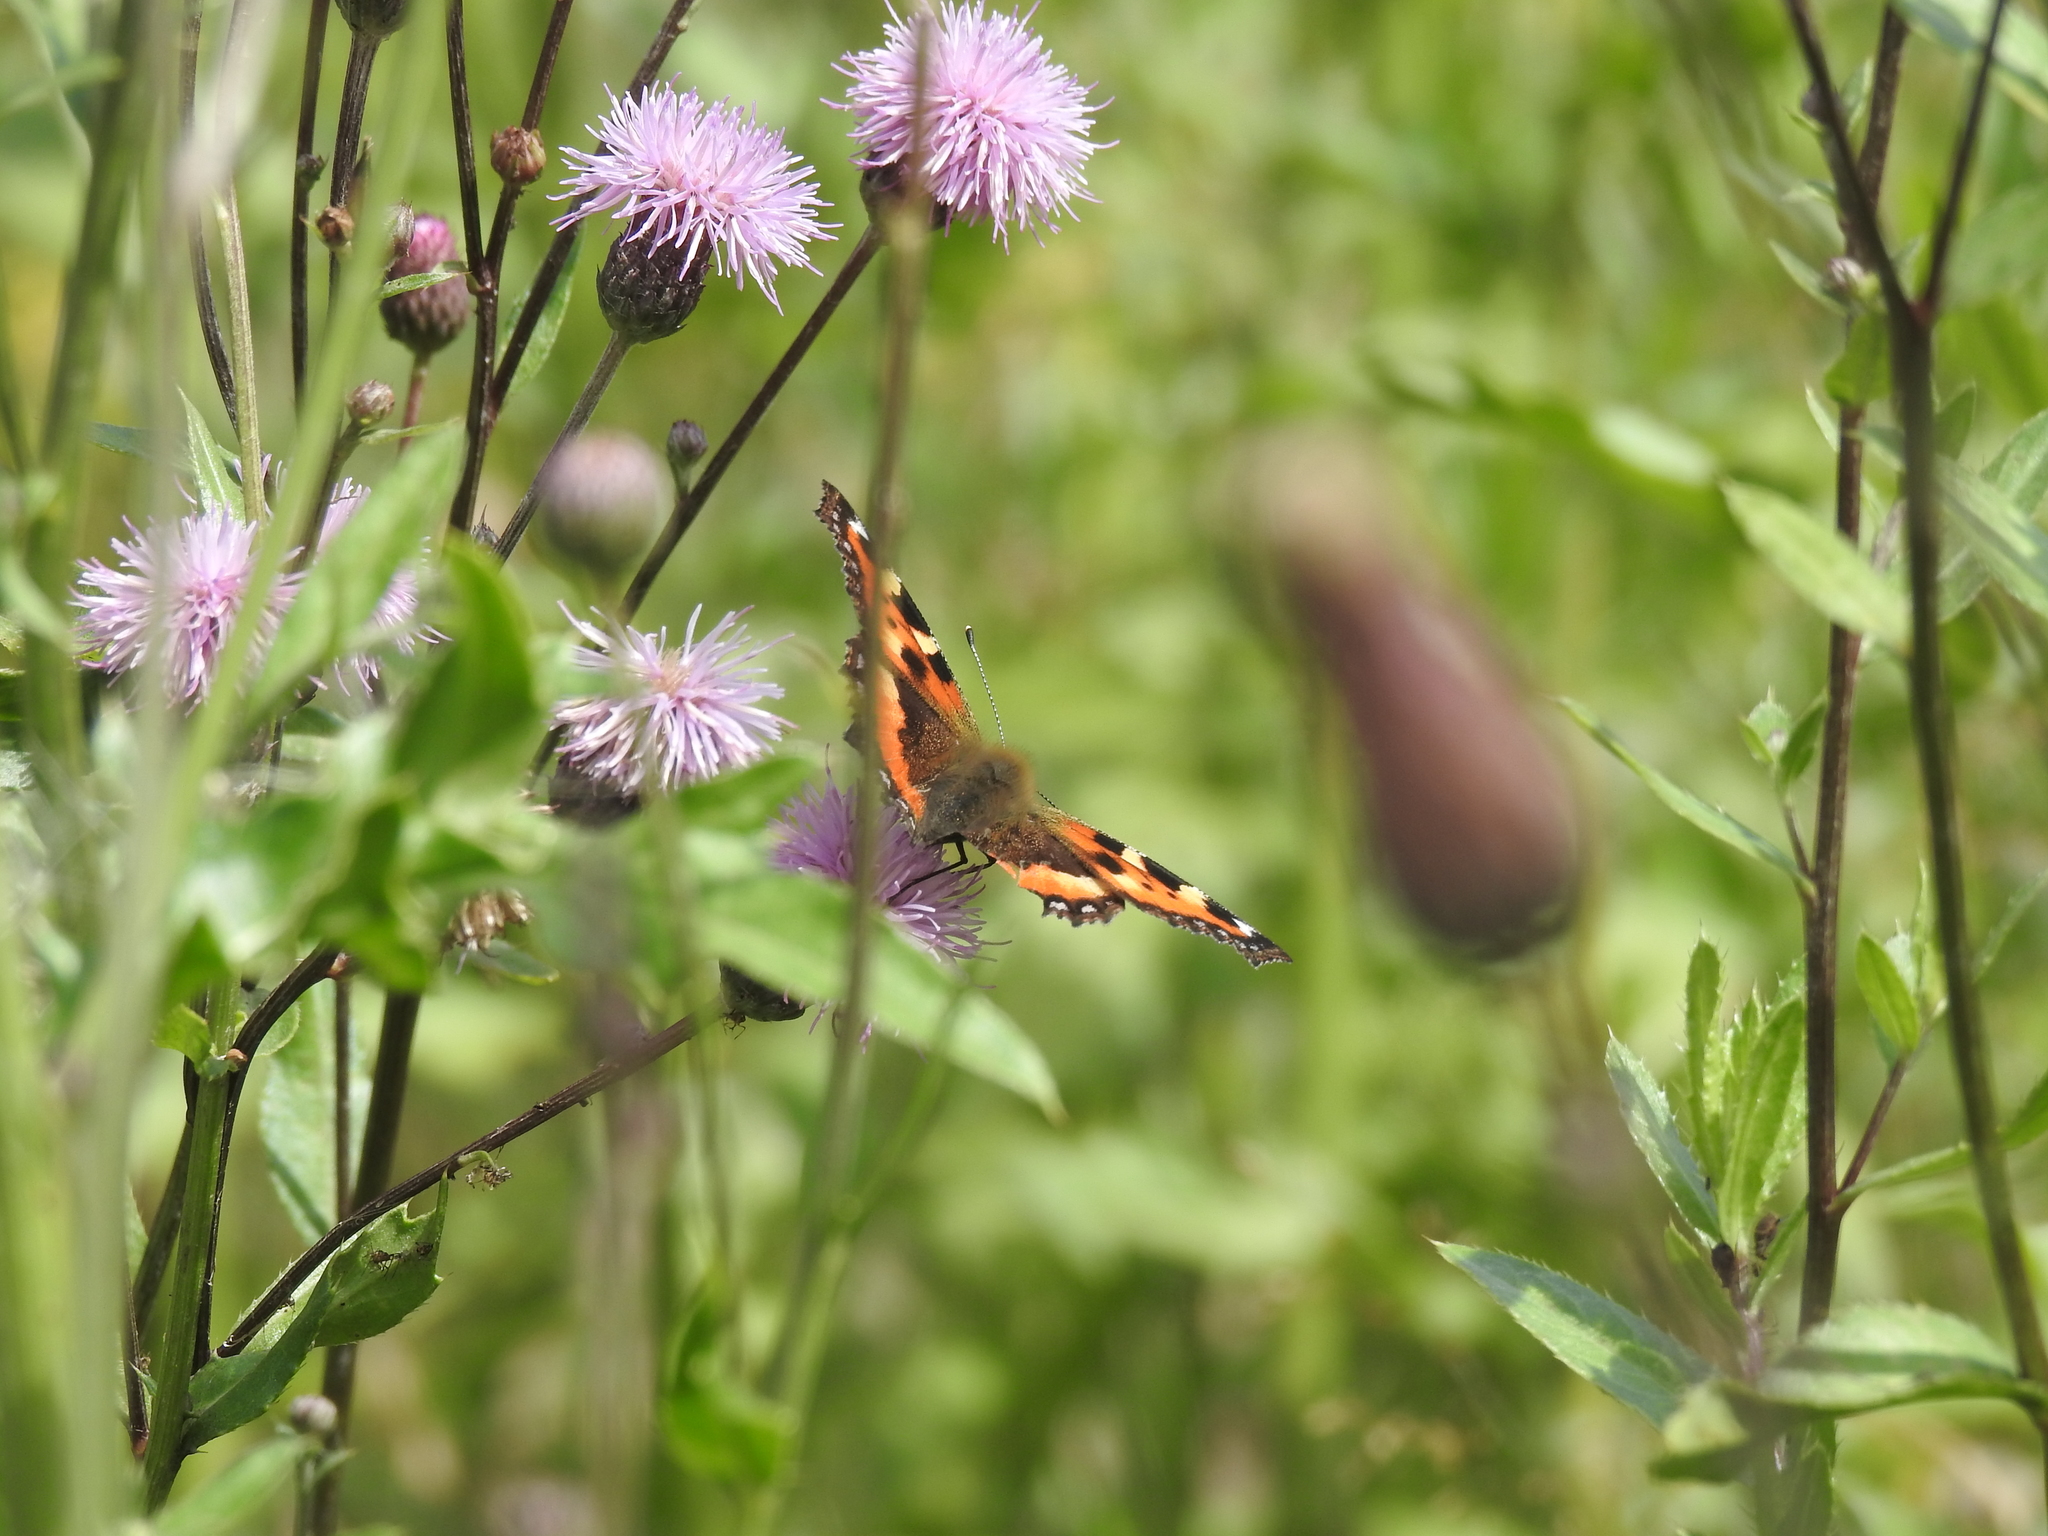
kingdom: Animalia
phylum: Arthropoda
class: Insecta
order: Lepidoptera
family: Nymphalidae
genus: Aglais
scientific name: Aglais urticae
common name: Small tortoiseshell
